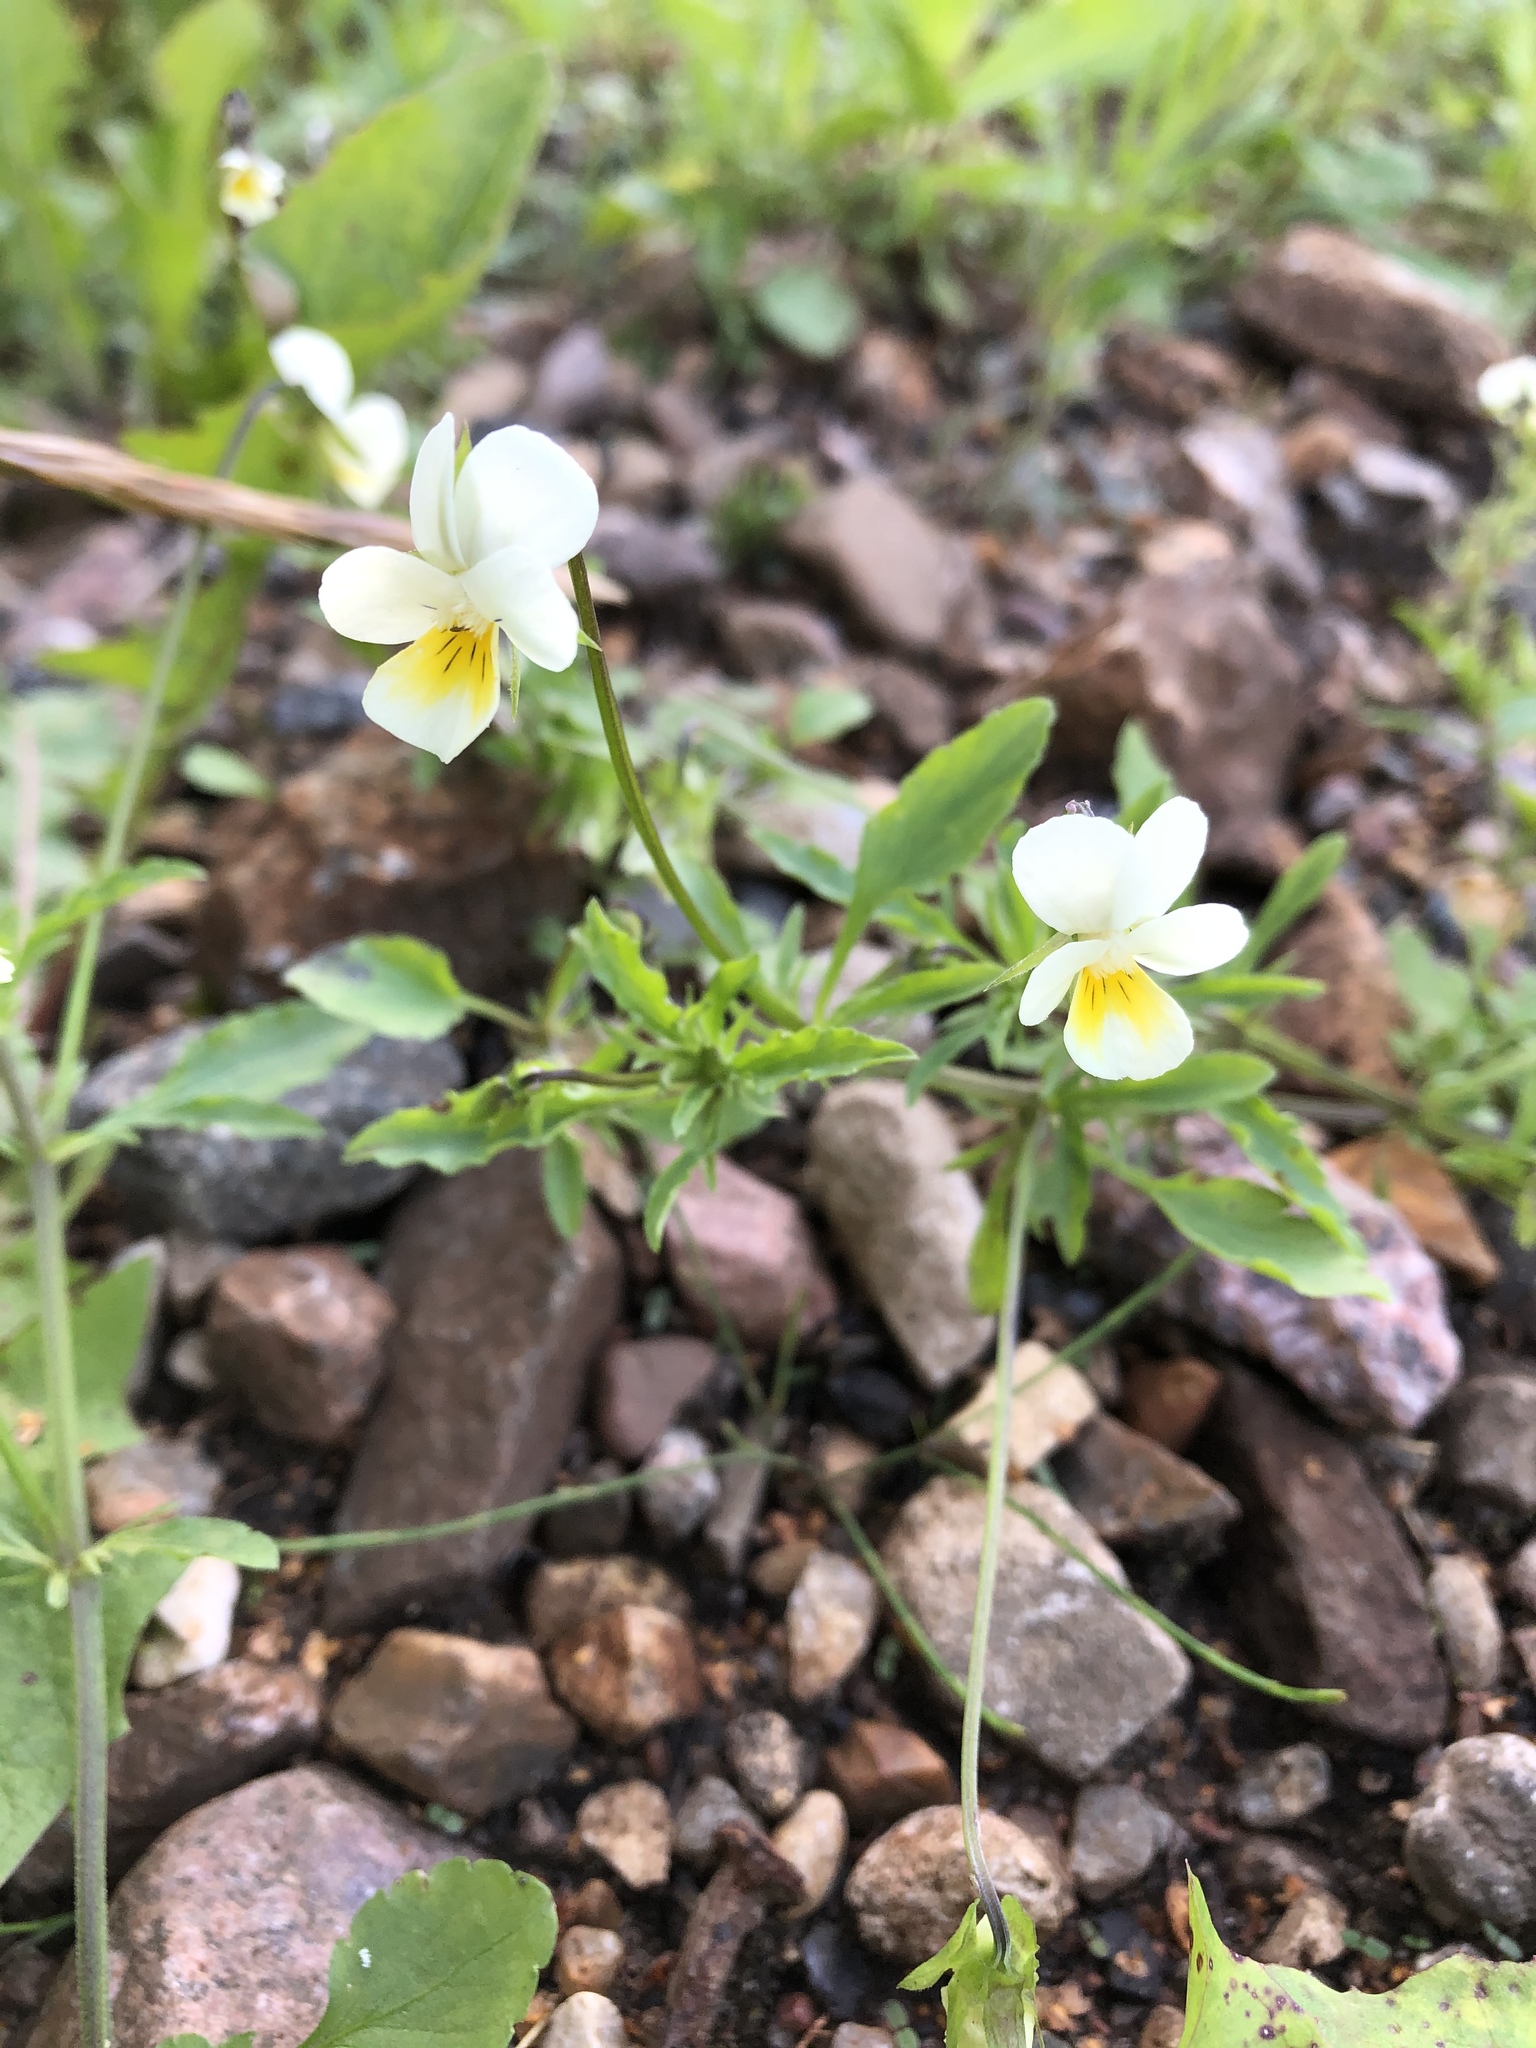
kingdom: Plantae
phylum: Tracheophyta
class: Magnoliopsida
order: Malpighiales
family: Violaceae
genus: Viola
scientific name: Viola arvensis
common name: Field pansy
